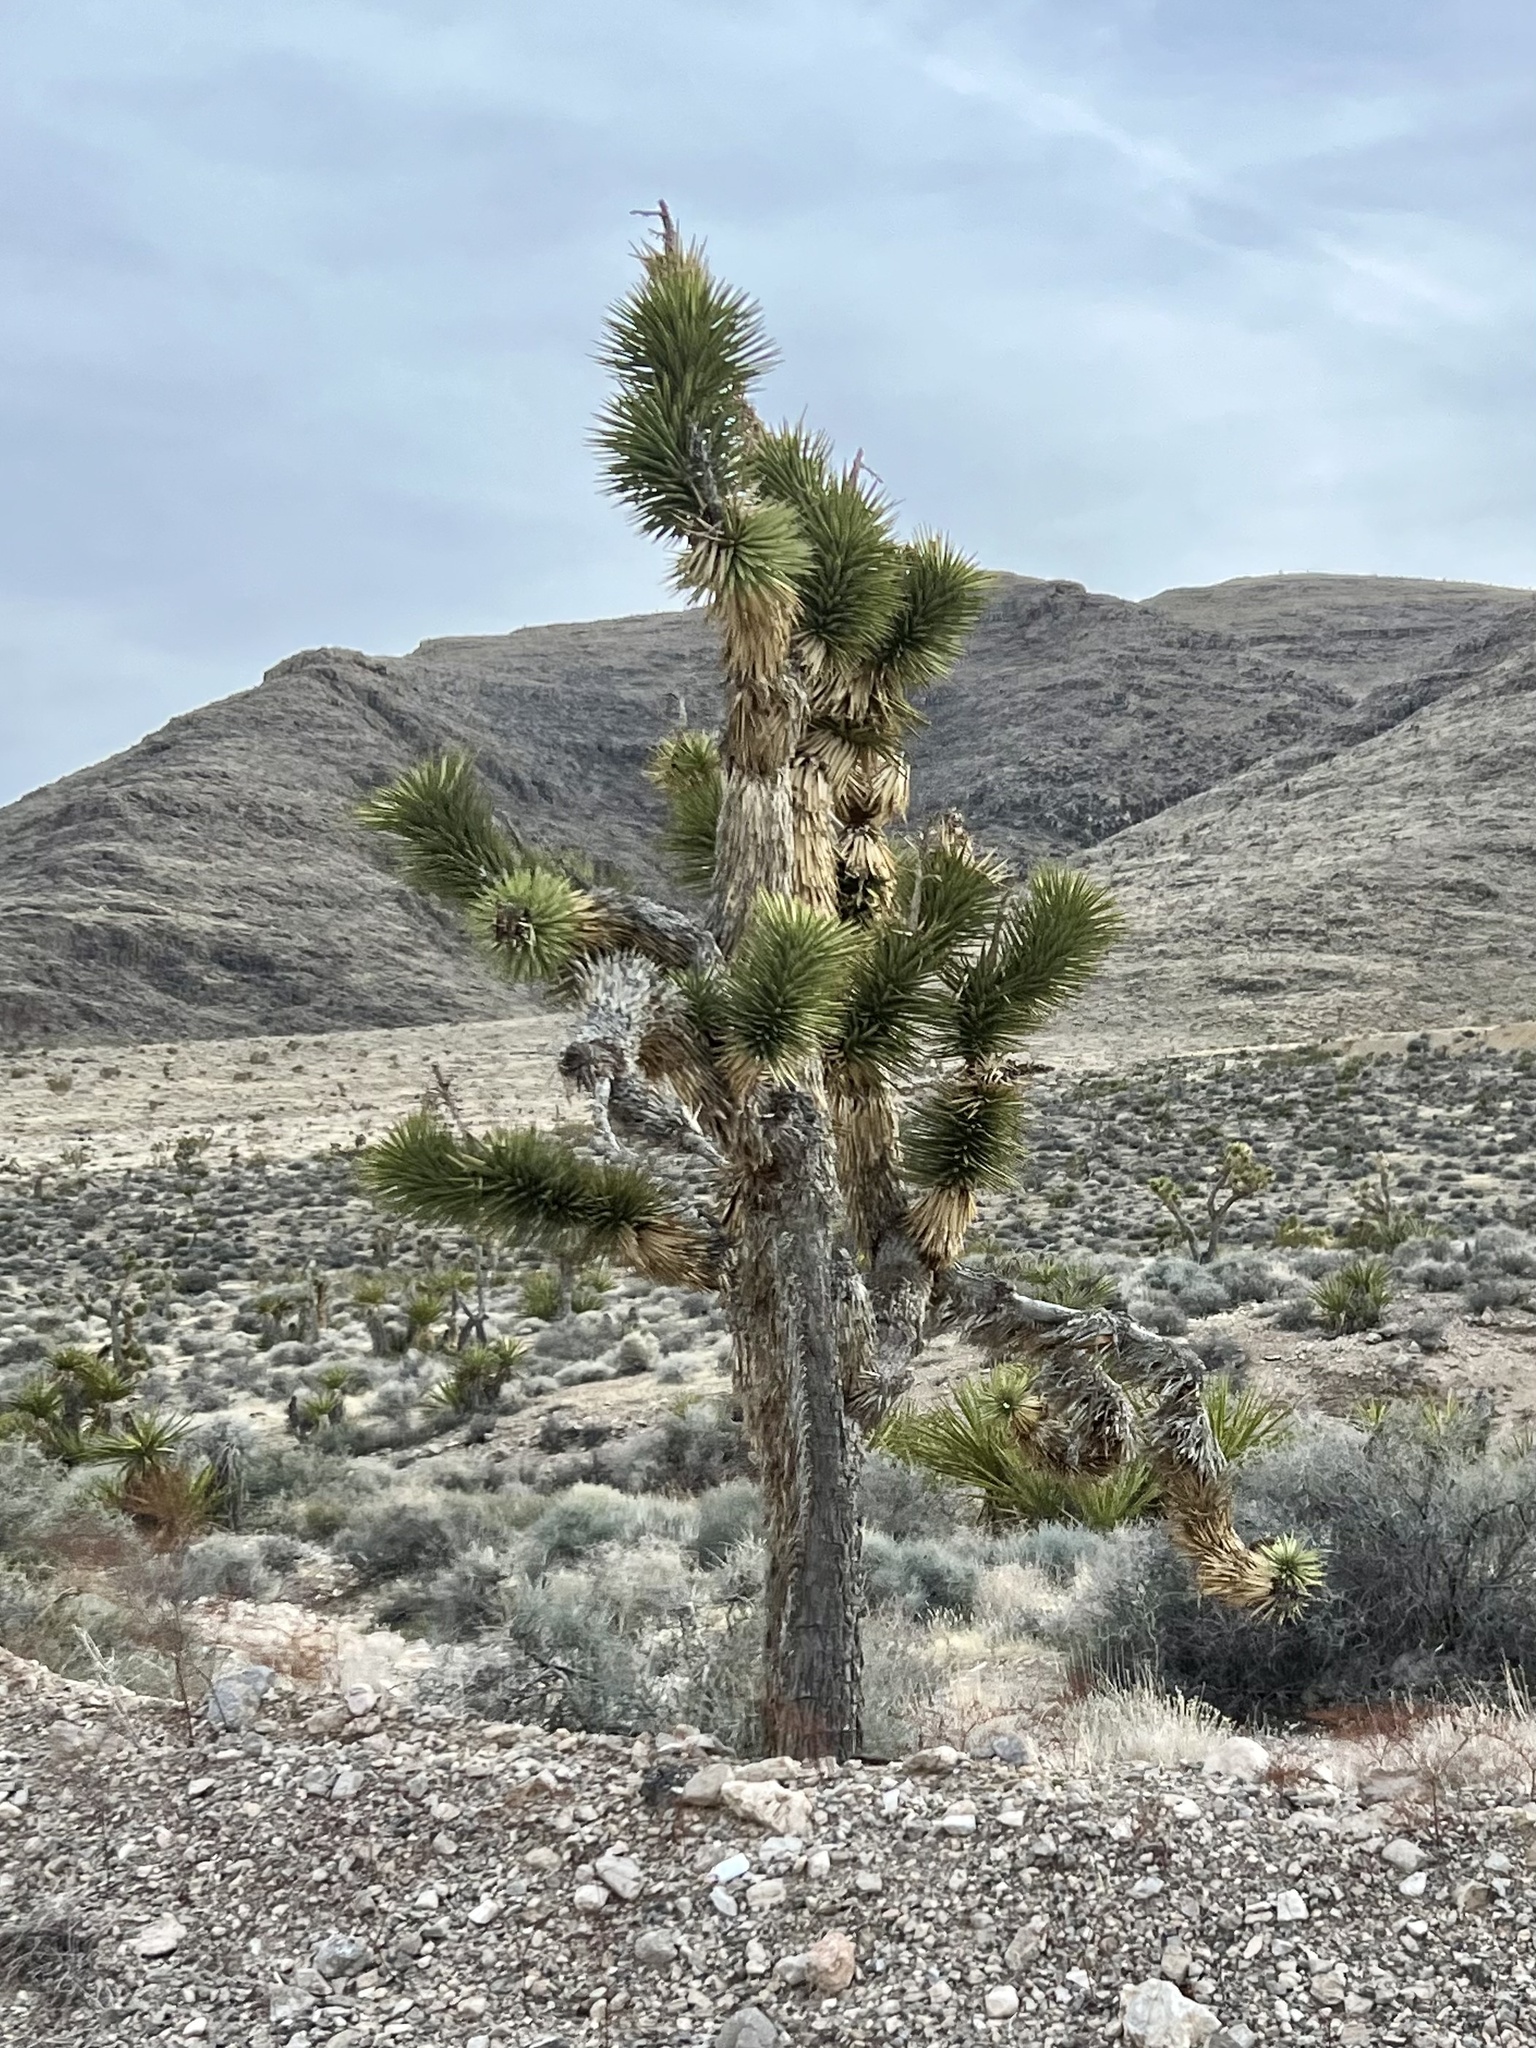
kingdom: Plantae
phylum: Tracheophyta
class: Liliopsida
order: Asparagales
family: Asparagaceae
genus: Yucca
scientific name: Yucca brevifolia
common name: Joshua tree
